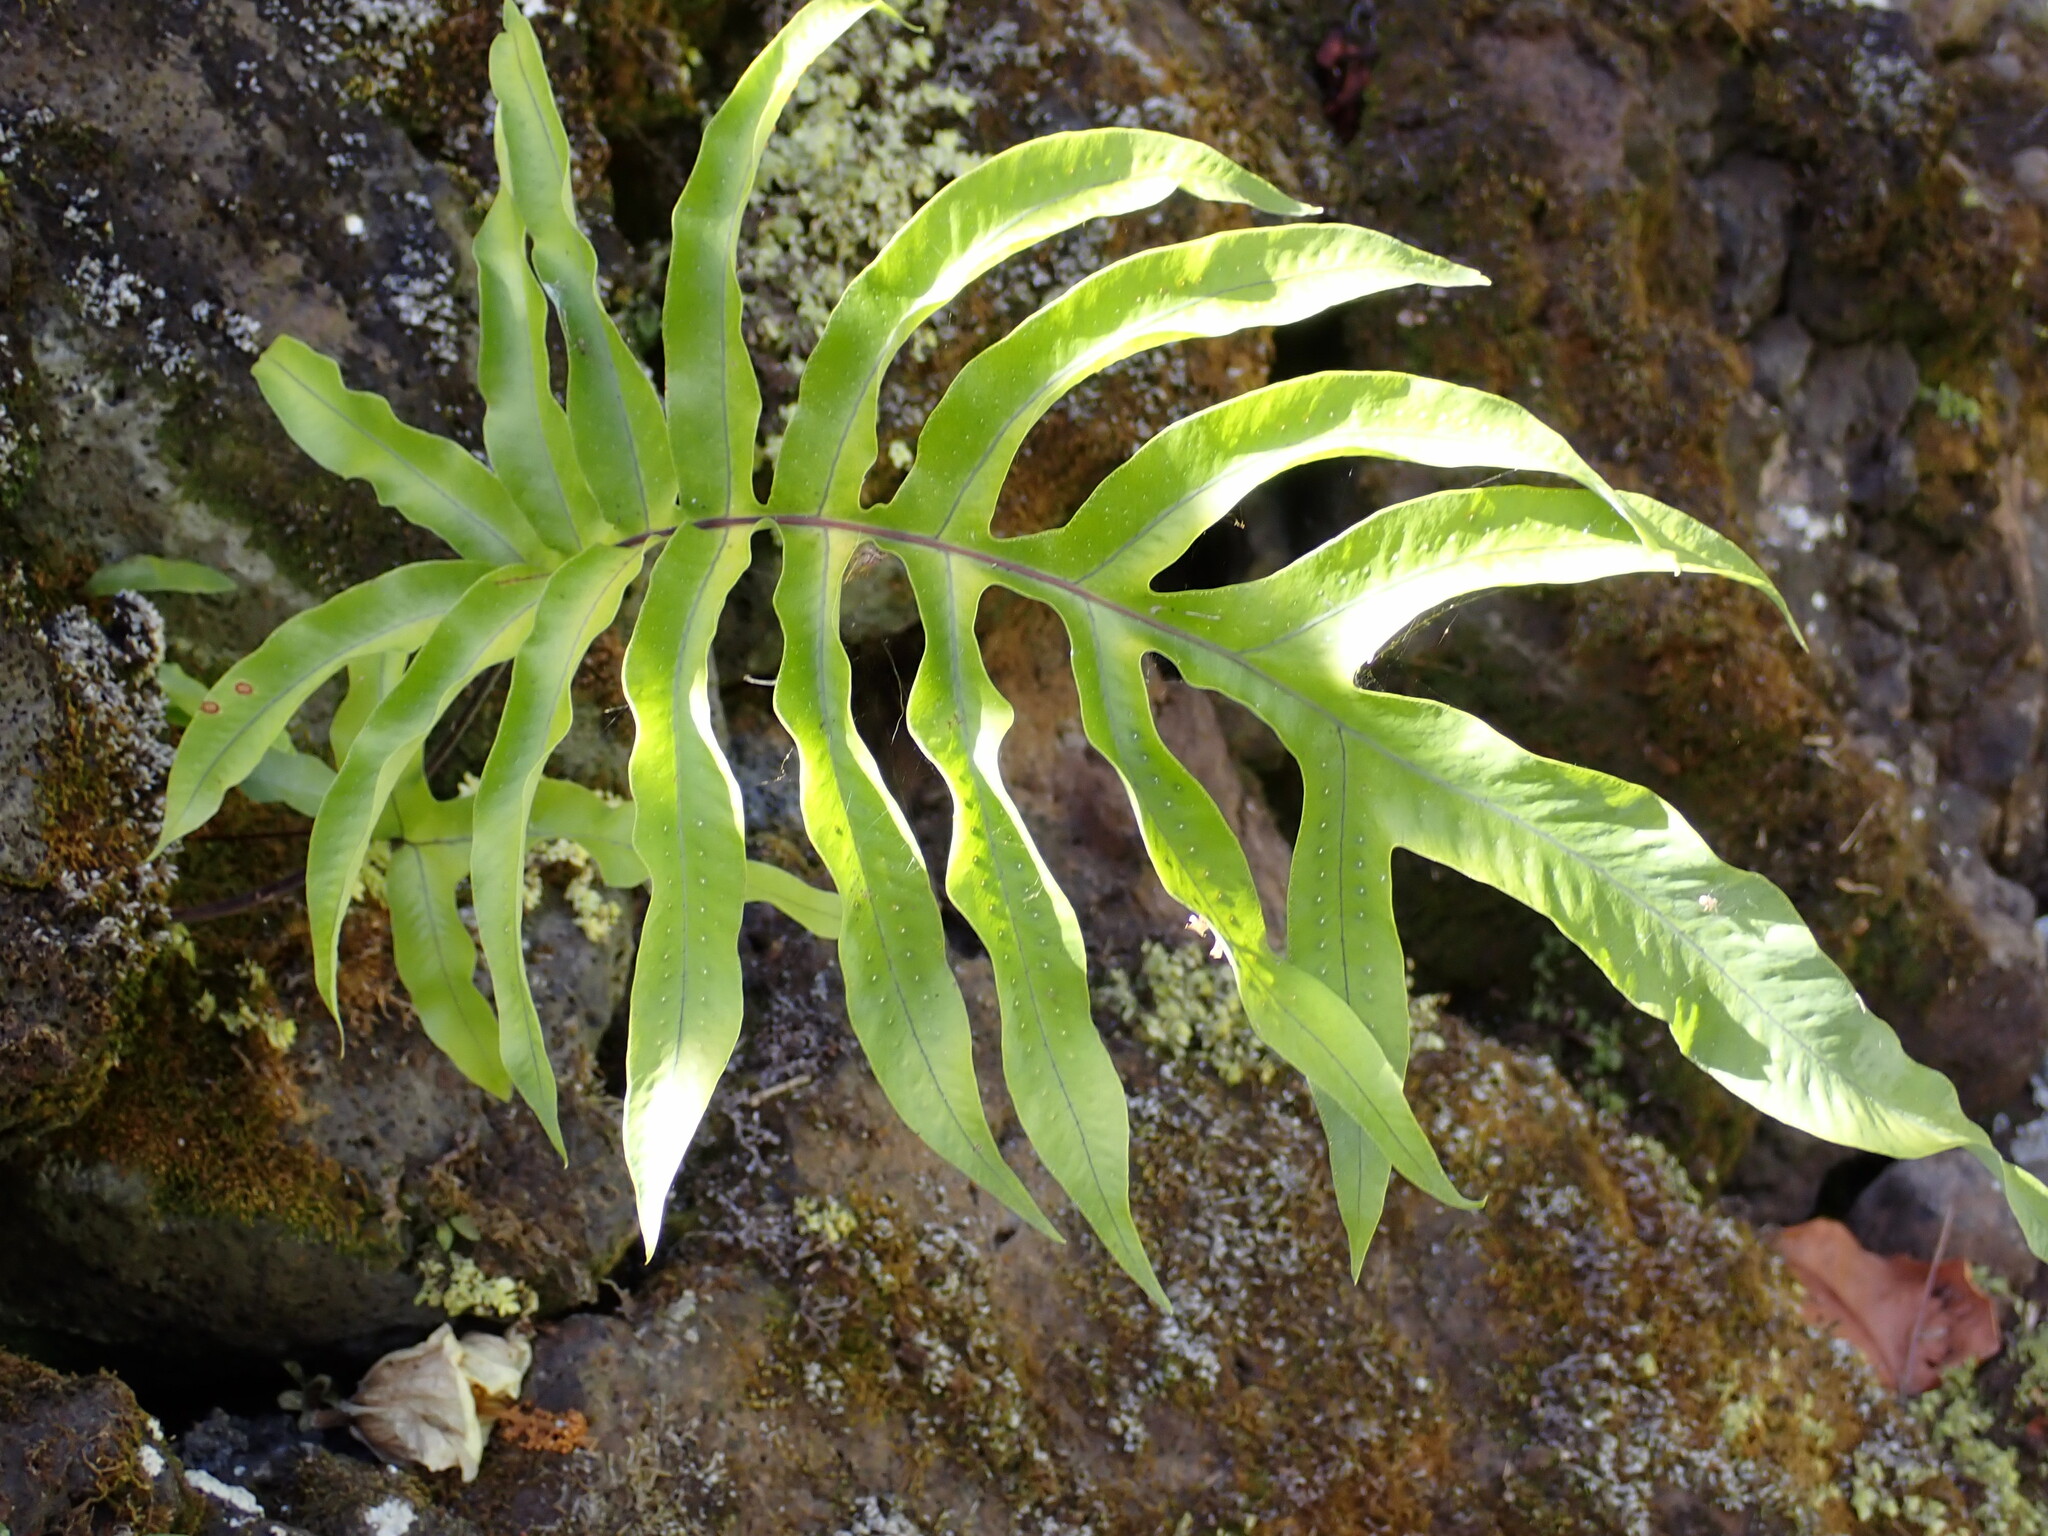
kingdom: Plantae
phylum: Tracheophyta
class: Polypodiopsida
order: Polypodiales
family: Polypodiaceae
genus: Phlebodium
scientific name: Phlebodium aureum
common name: Gold-foot fern
